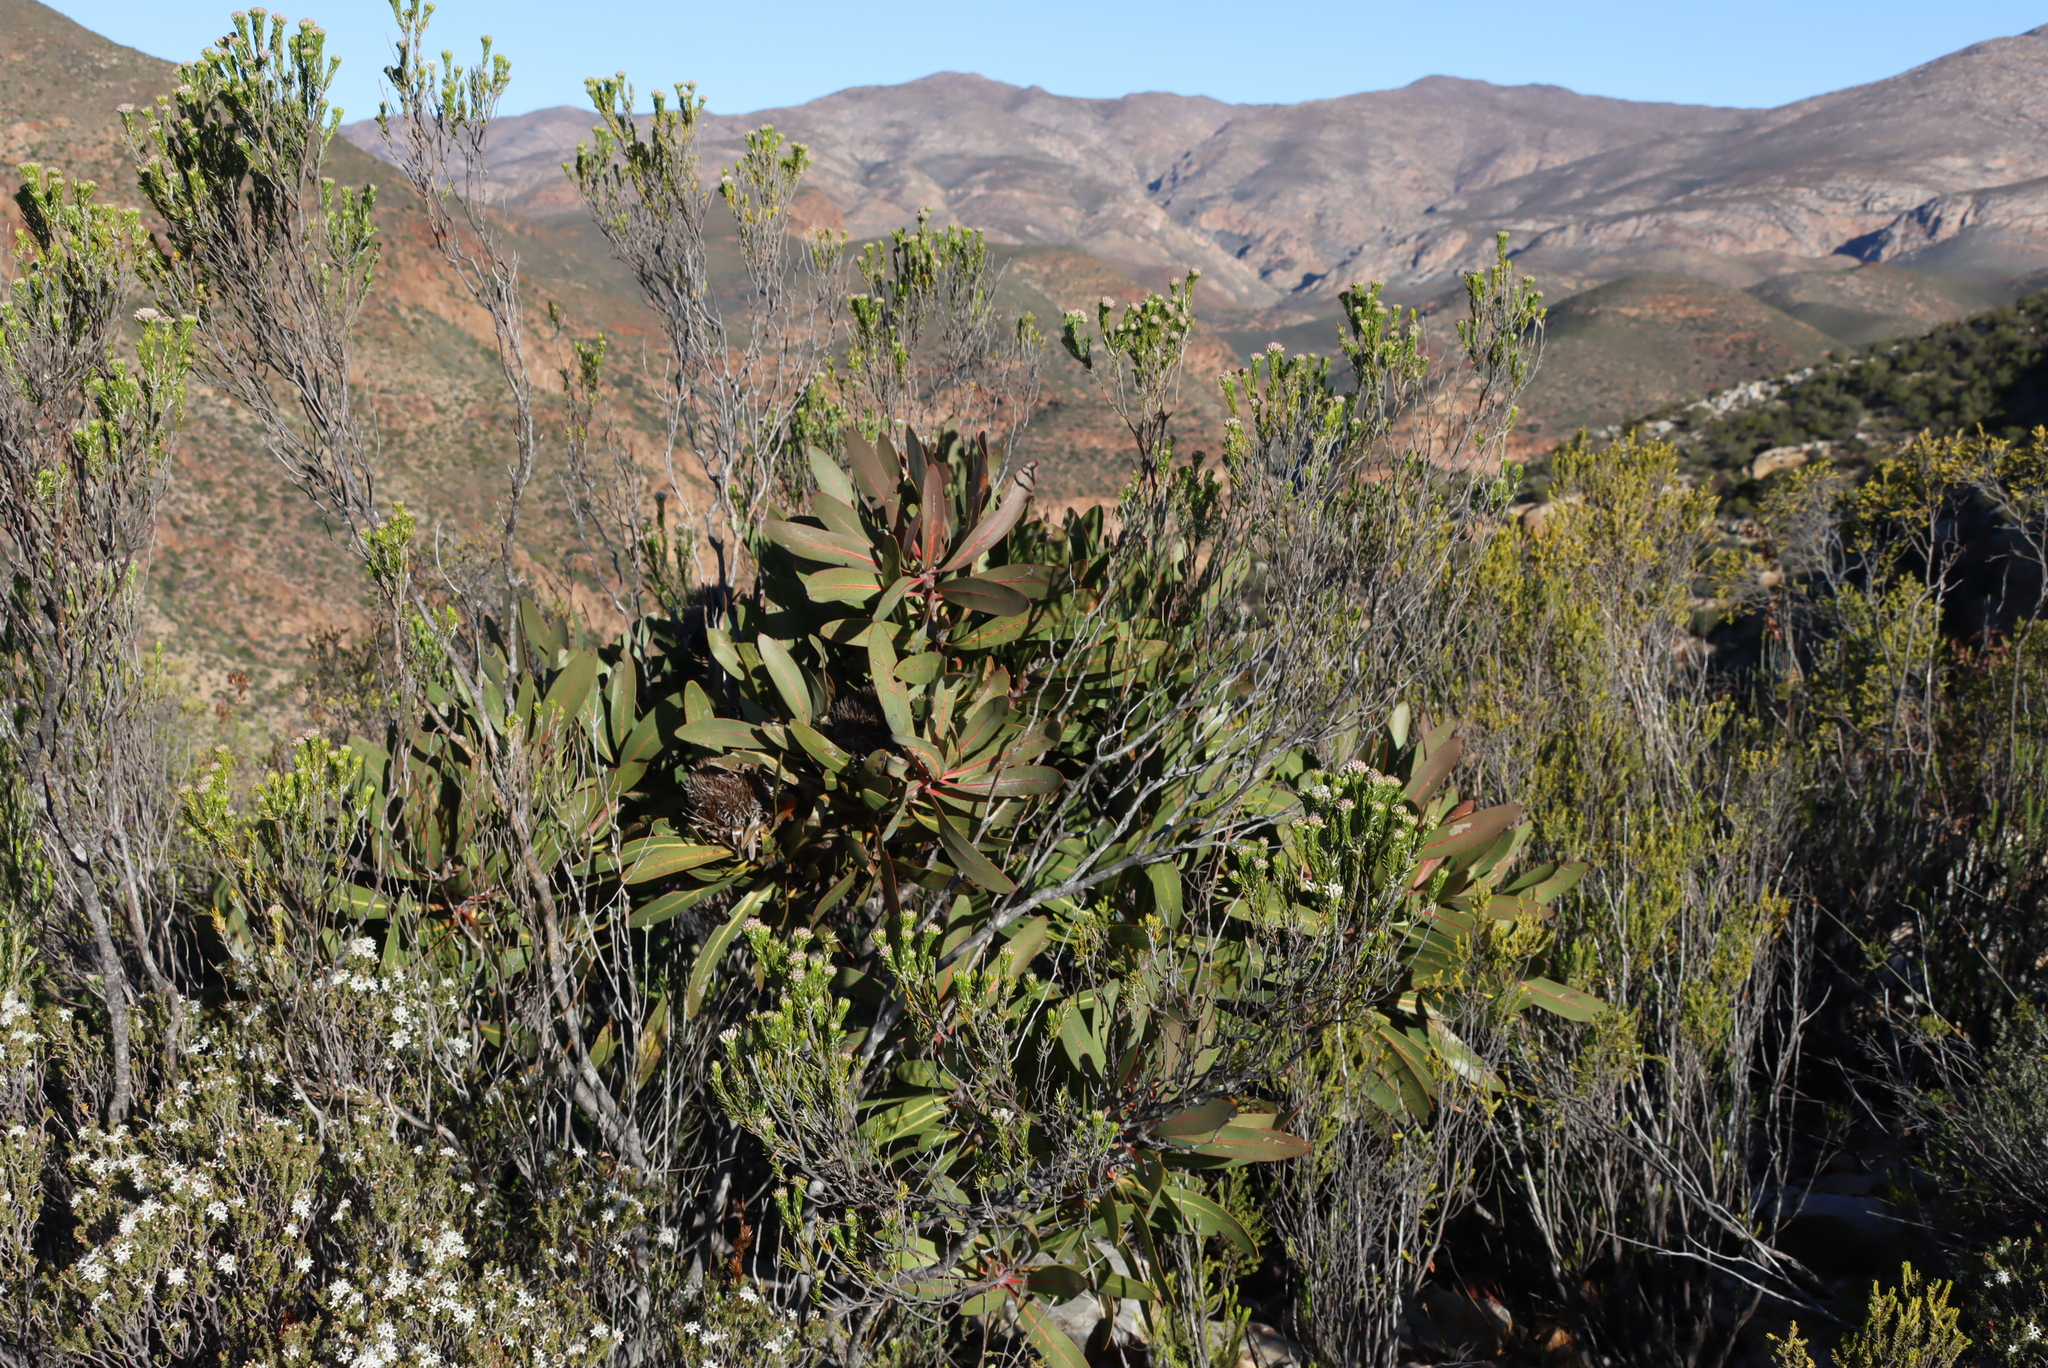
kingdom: Plantae
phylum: Tracheophyta
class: Magnoliopsida
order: Proteales
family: Proteaceae
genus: Protea
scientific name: Protea lorifolia
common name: Strap-leaved protea
